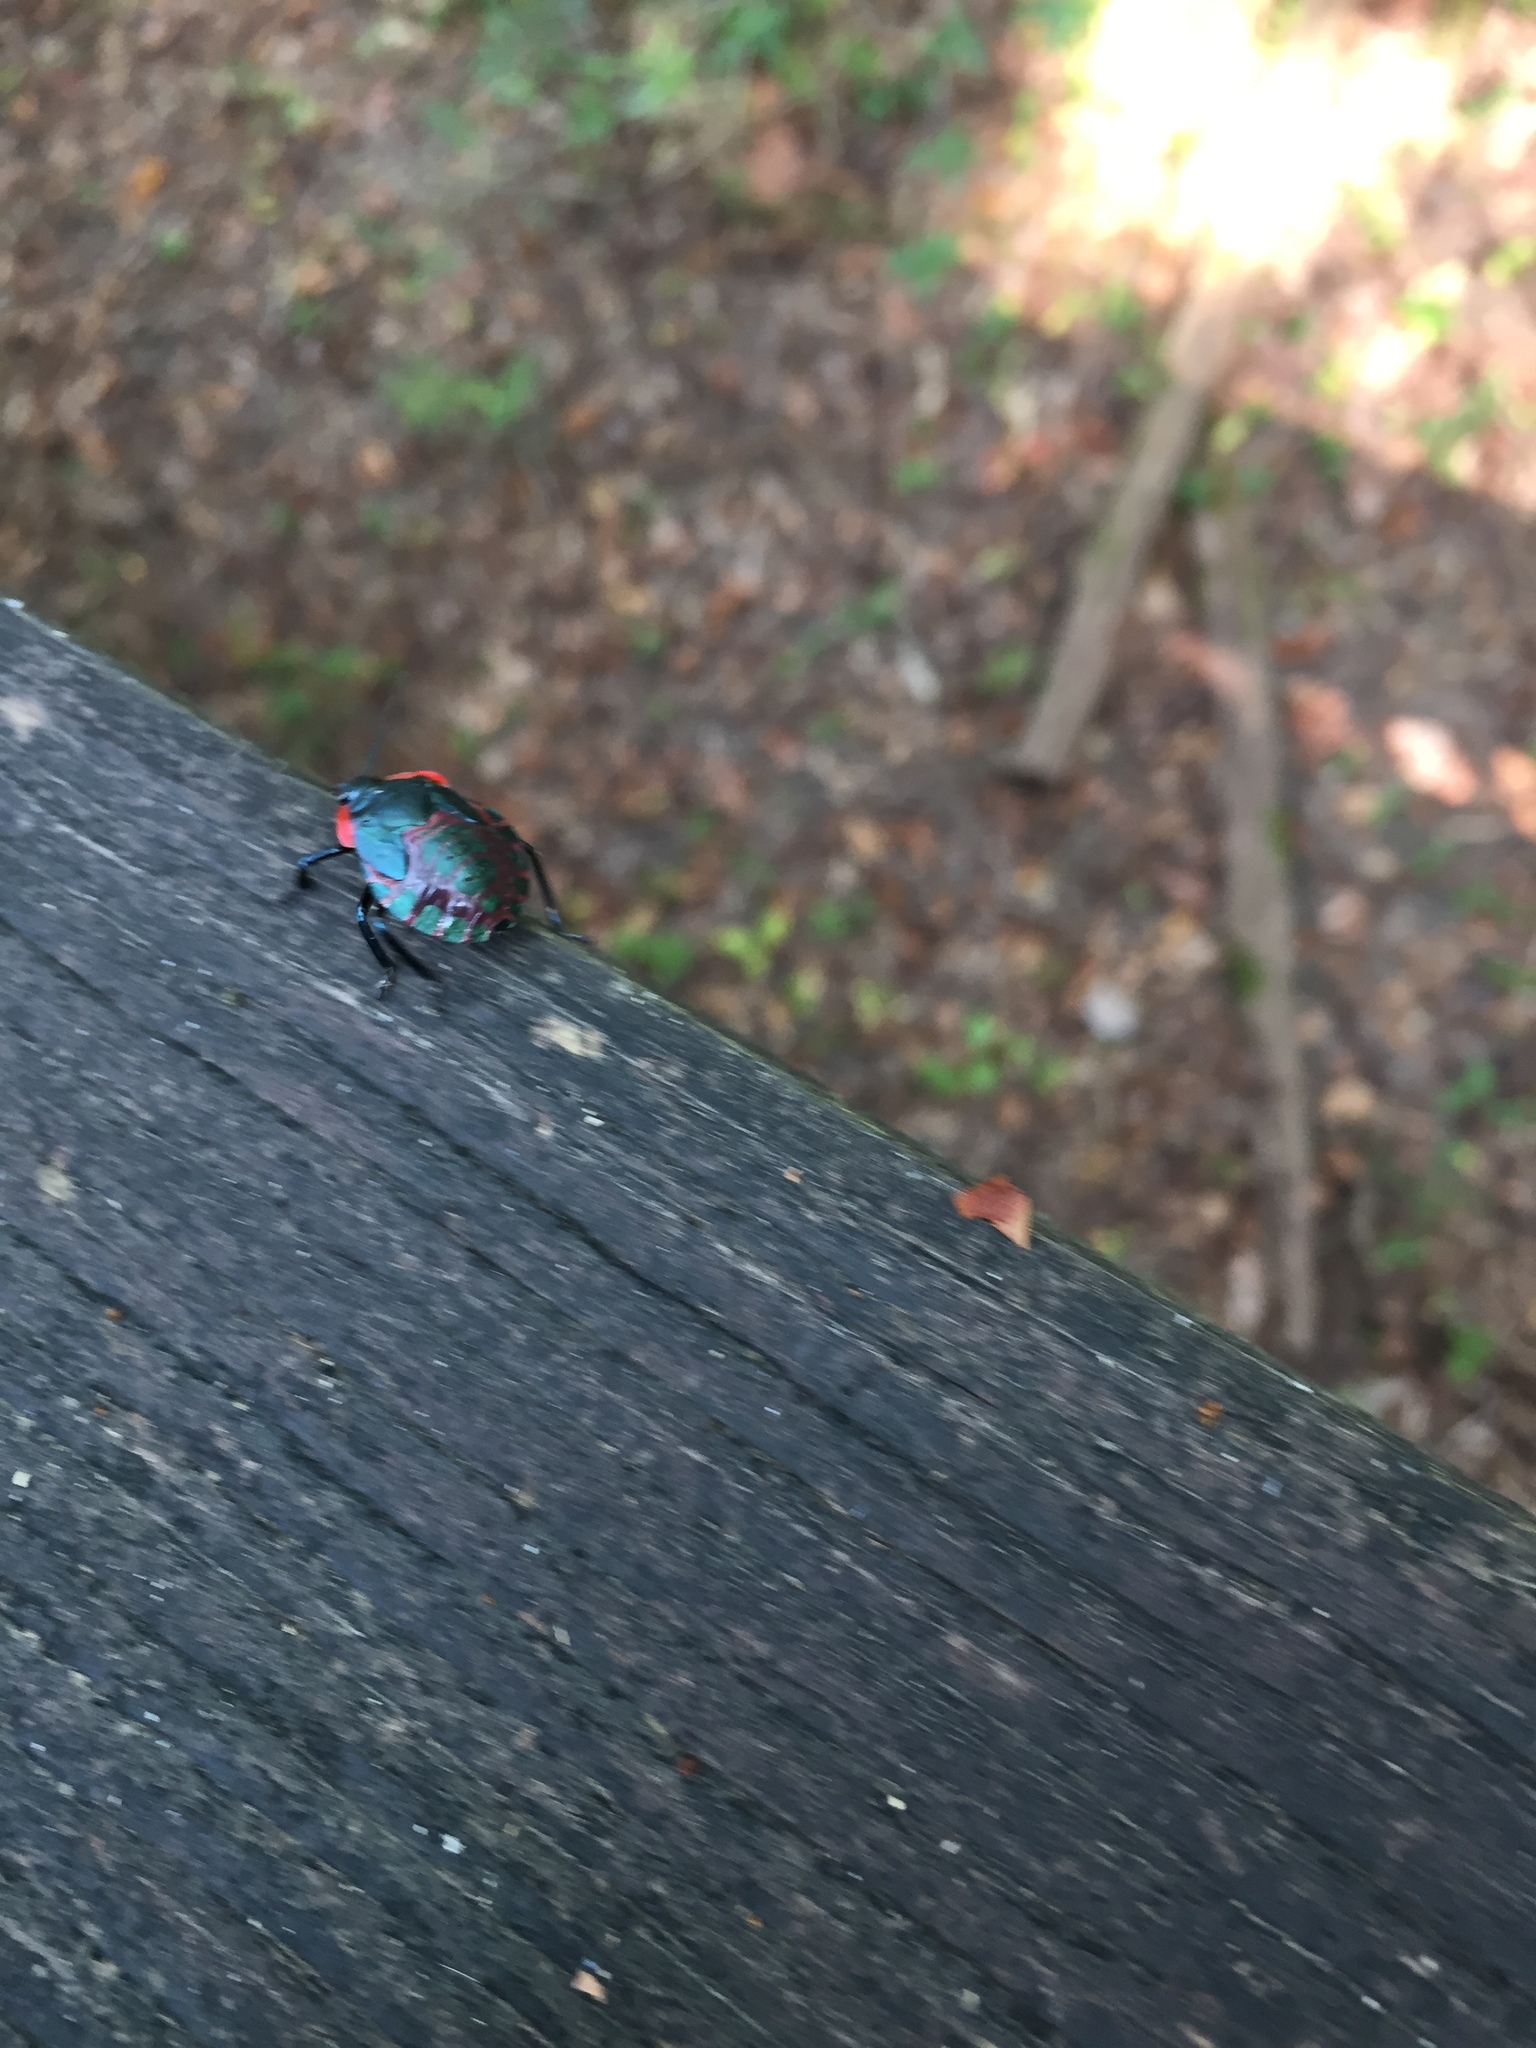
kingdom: Animalia
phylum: Arthropoda
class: Insecta
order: Hemiptera
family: Pentatomidae
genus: Alcaeorrhynchus
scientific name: Alcaeorrhynchus grandis
